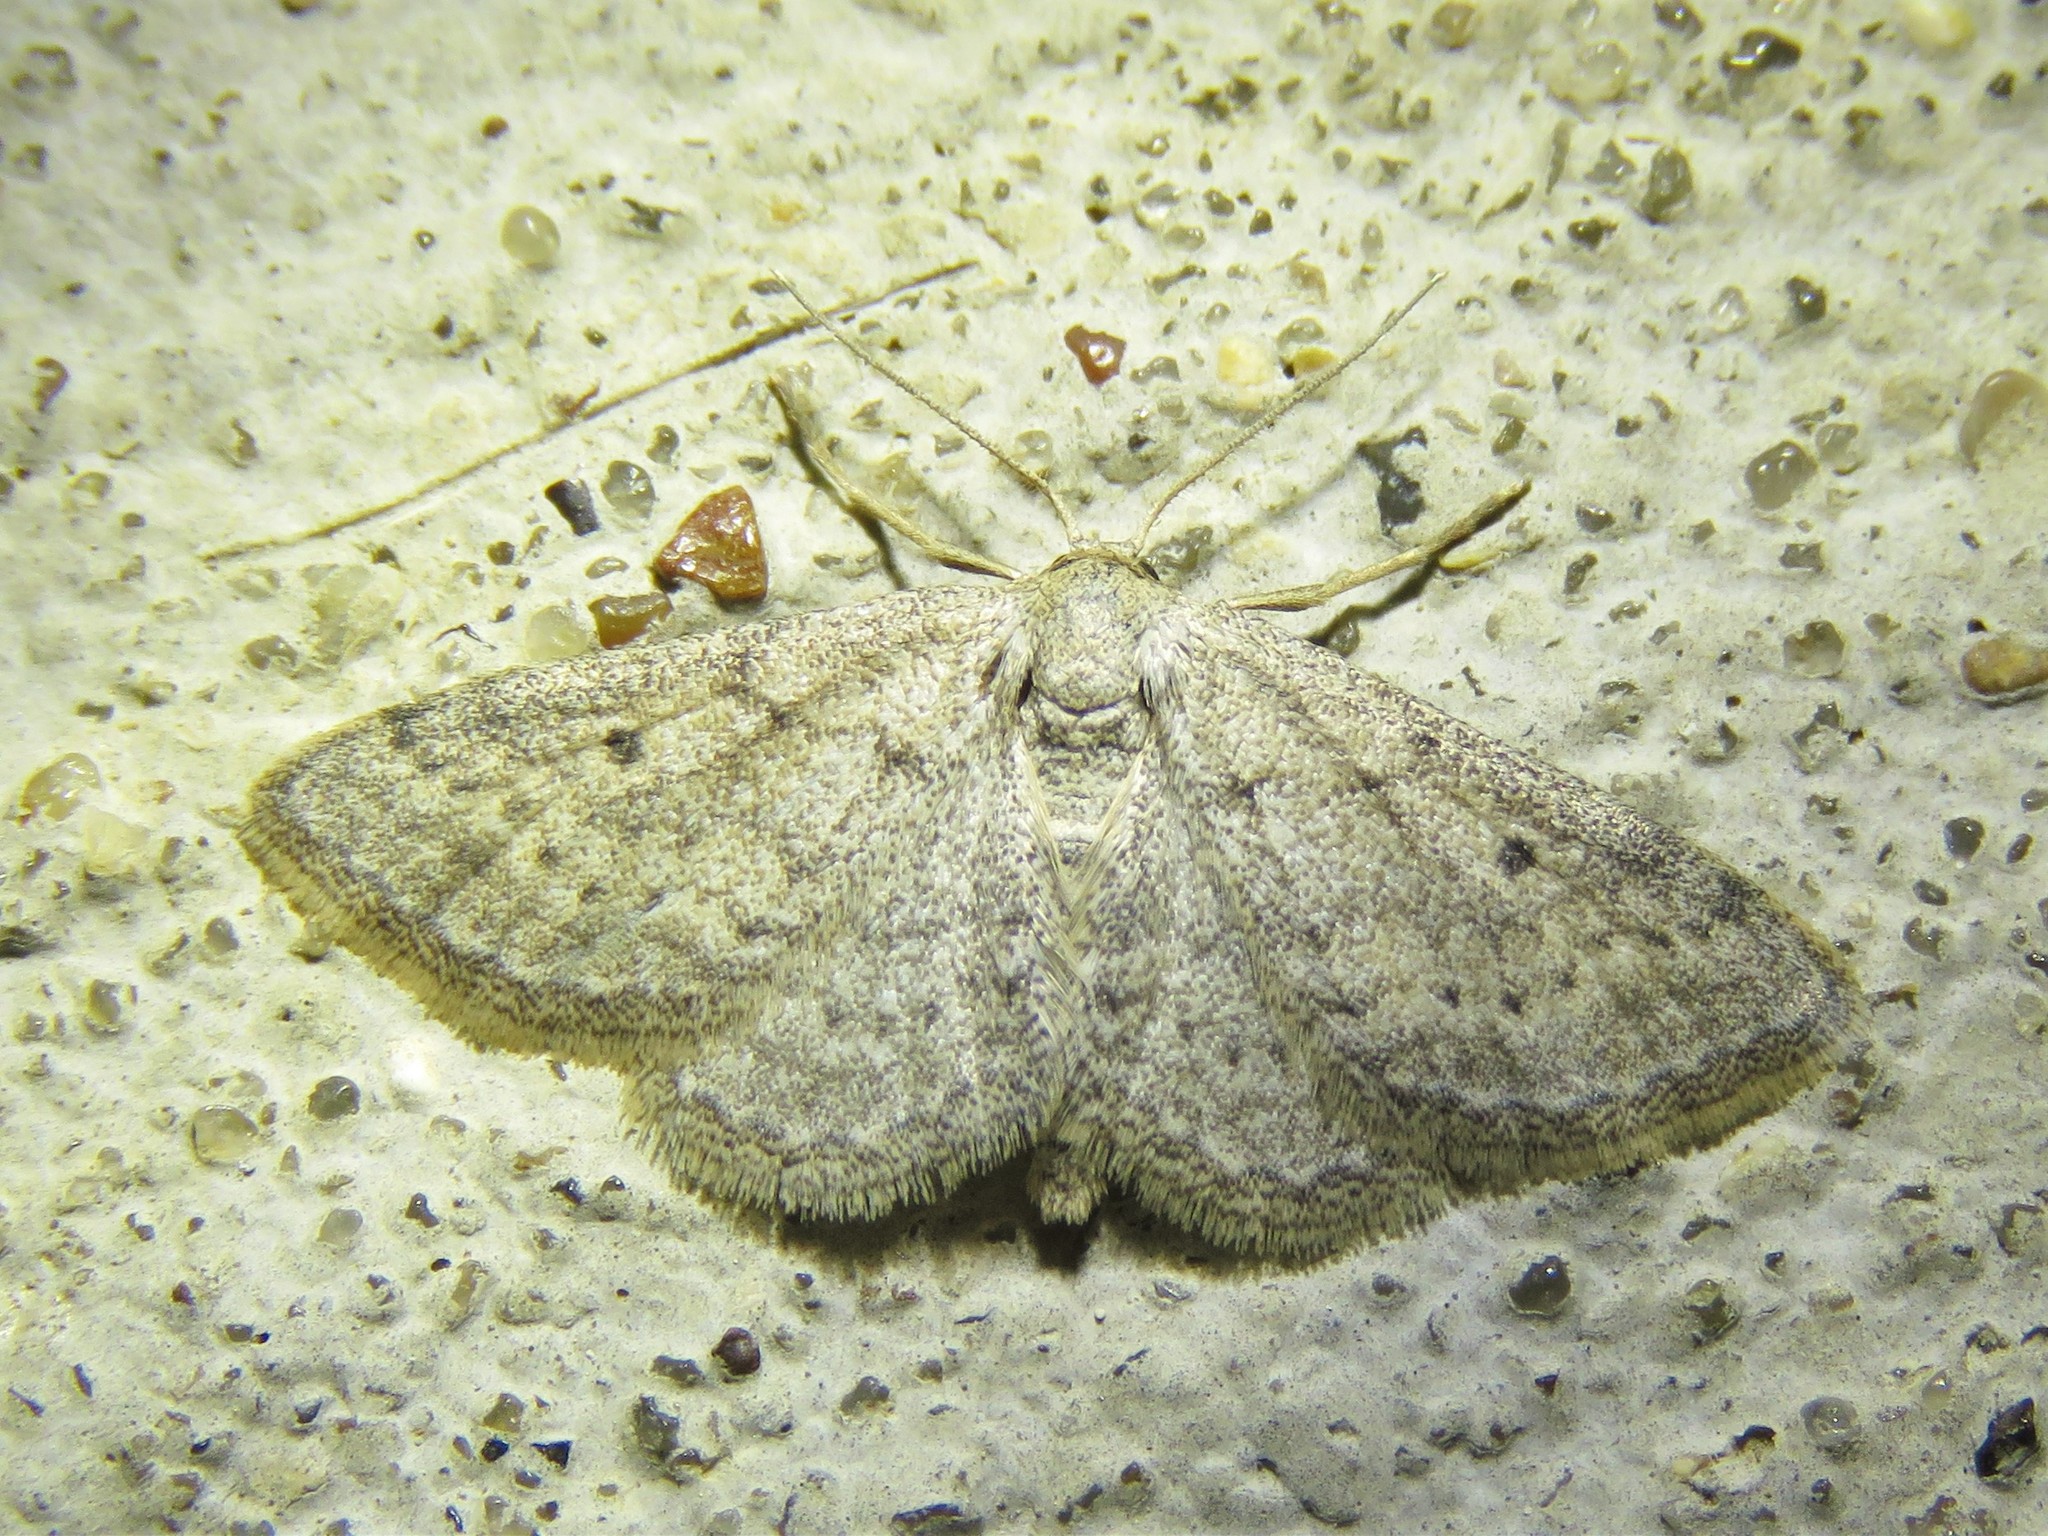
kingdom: Animalia
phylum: Arthropoda
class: Insecta
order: Lepidoptera
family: Geometridae
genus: Lobocleta
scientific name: Lobocleta ossularia
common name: Drab brown wave
